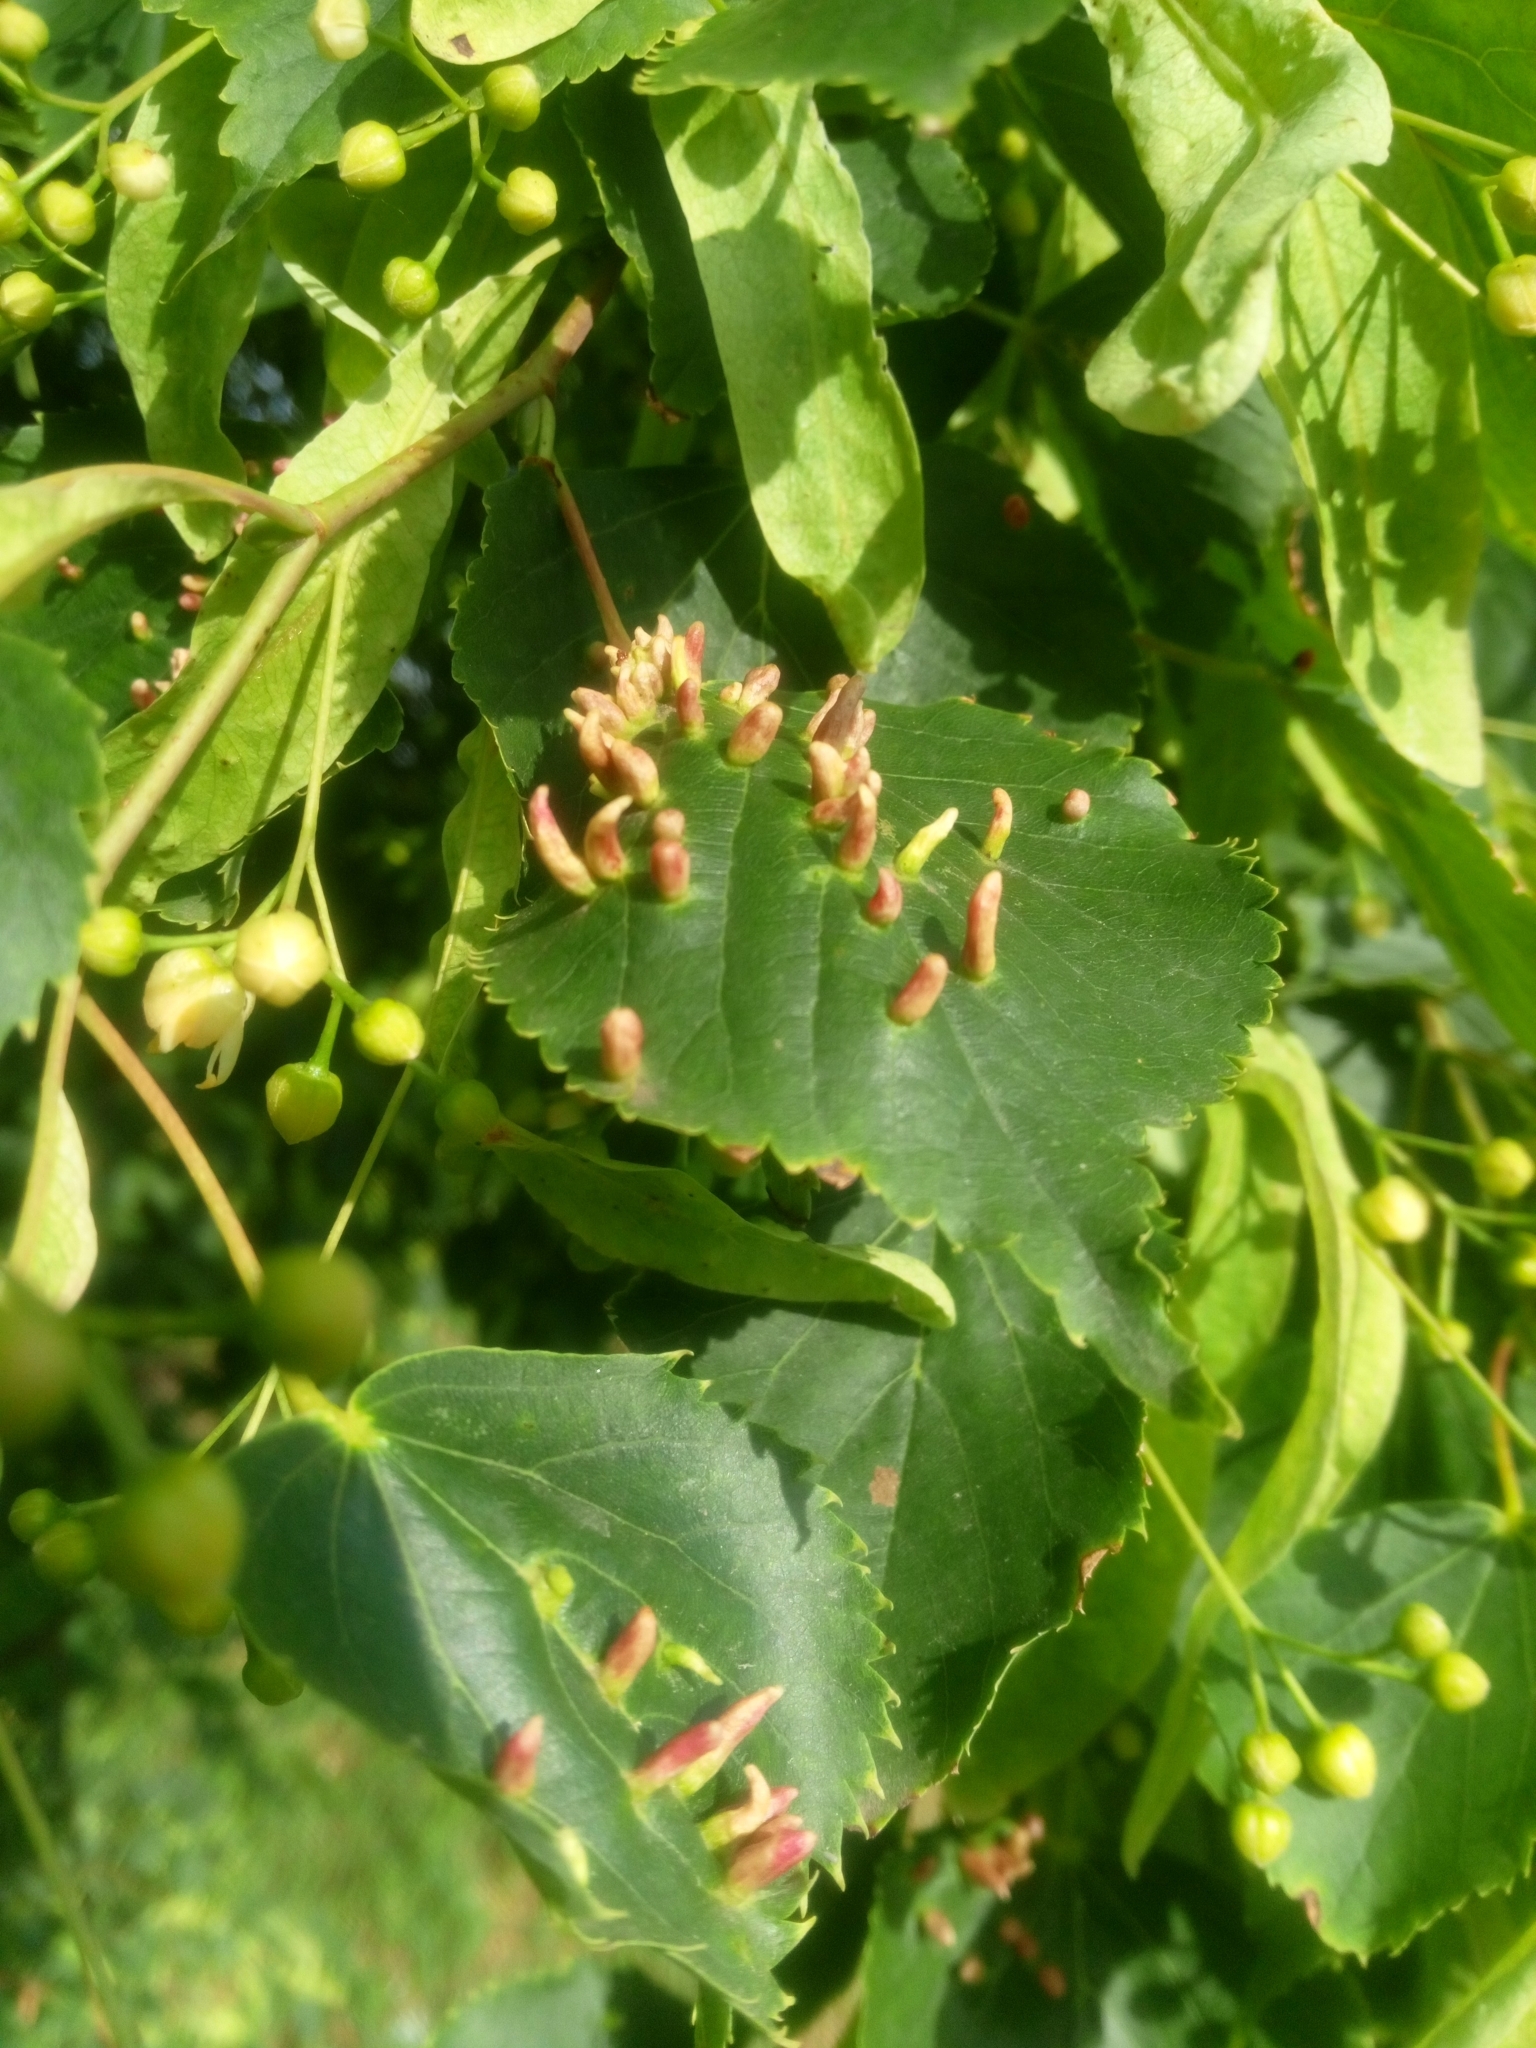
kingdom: Animalia
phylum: Arthropoda
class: Arachnida
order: Trombidiformes
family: Eriophyidae
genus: Eriophyes
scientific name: Eriophyes tiliae
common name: Red nail gall mite
